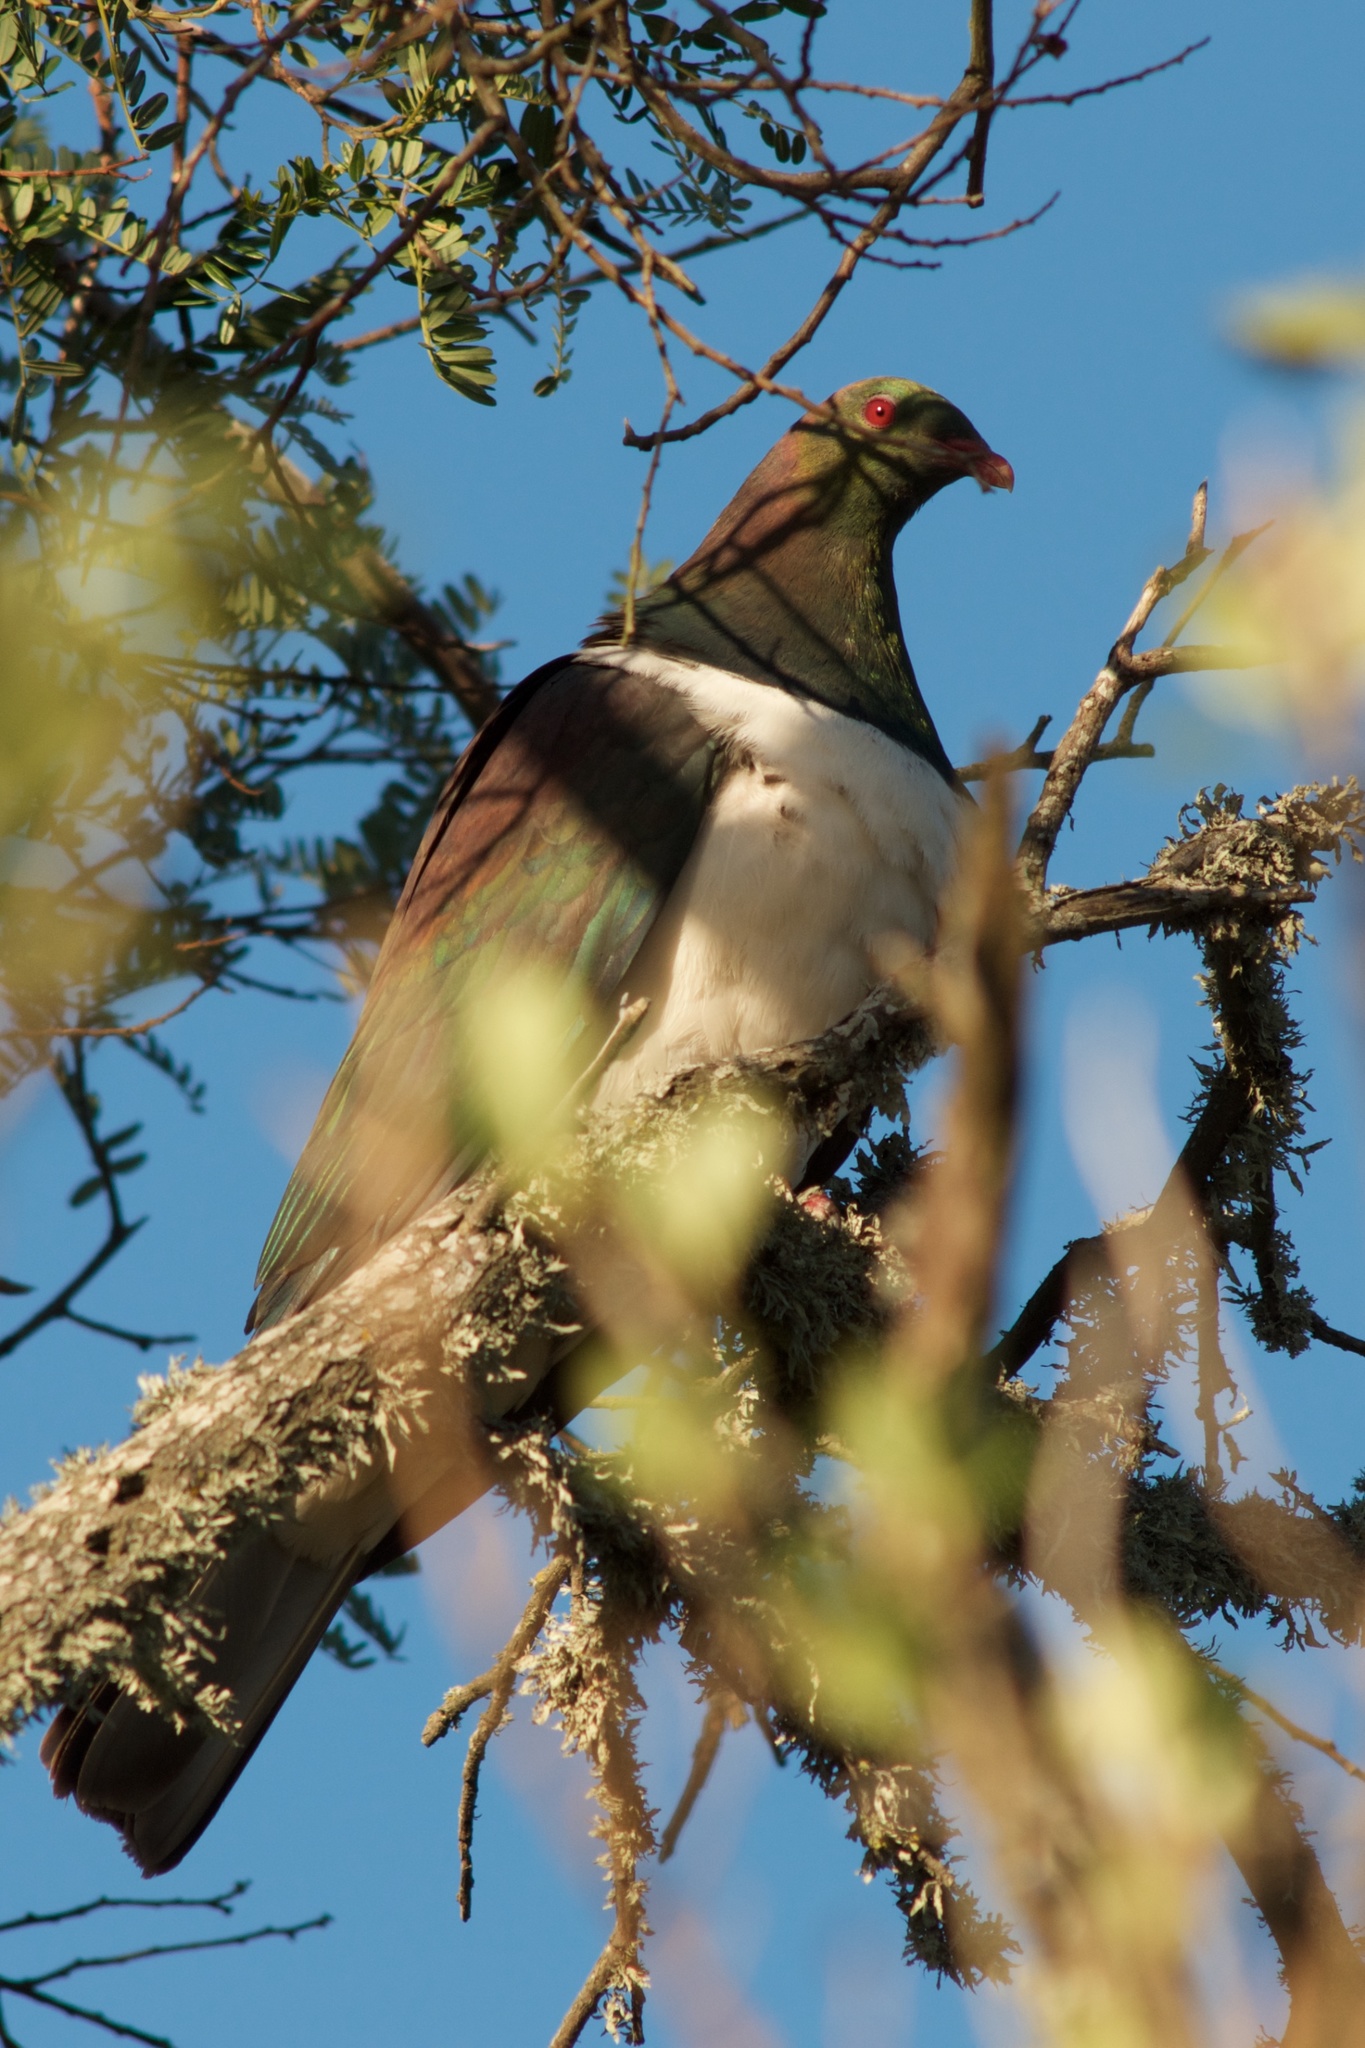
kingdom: Animalia
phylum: Chordata
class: Aves
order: Columbiformes
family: Columbidae
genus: Hemiphaga
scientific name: Hemiphaga novaeseelandiae
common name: New zealand pigeon
